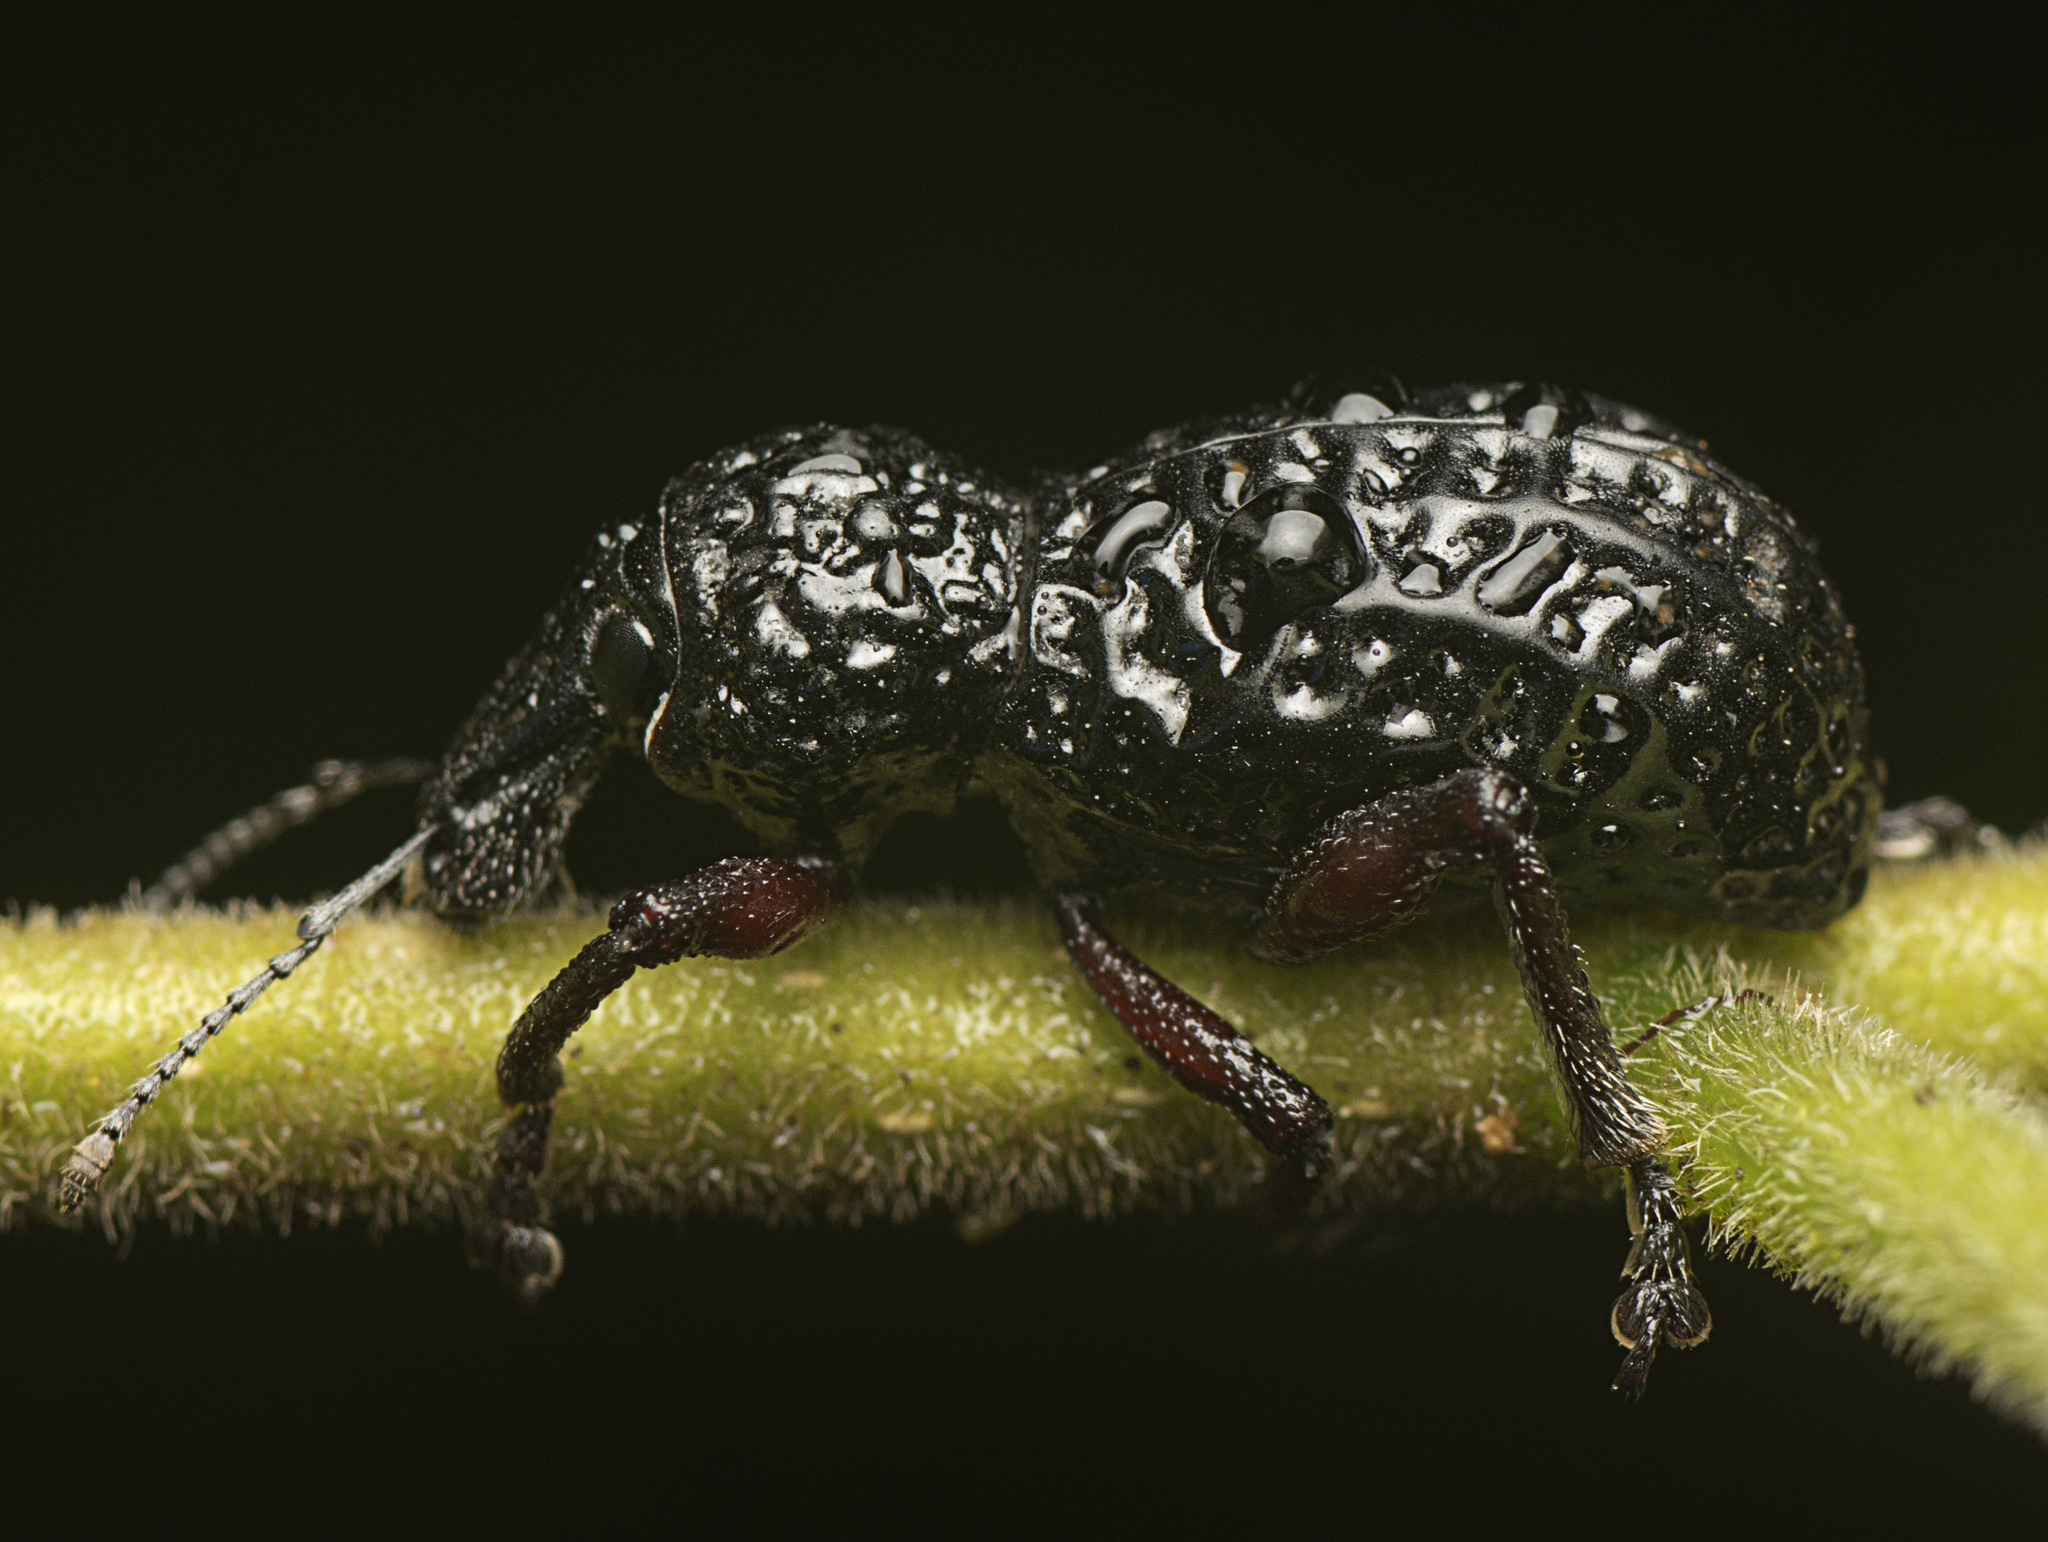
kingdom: Animalia
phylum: Arthropoda
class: Insecta
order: Coleoptera
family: Curculionidae
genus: Zymaus
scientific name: Zymaus angustus
